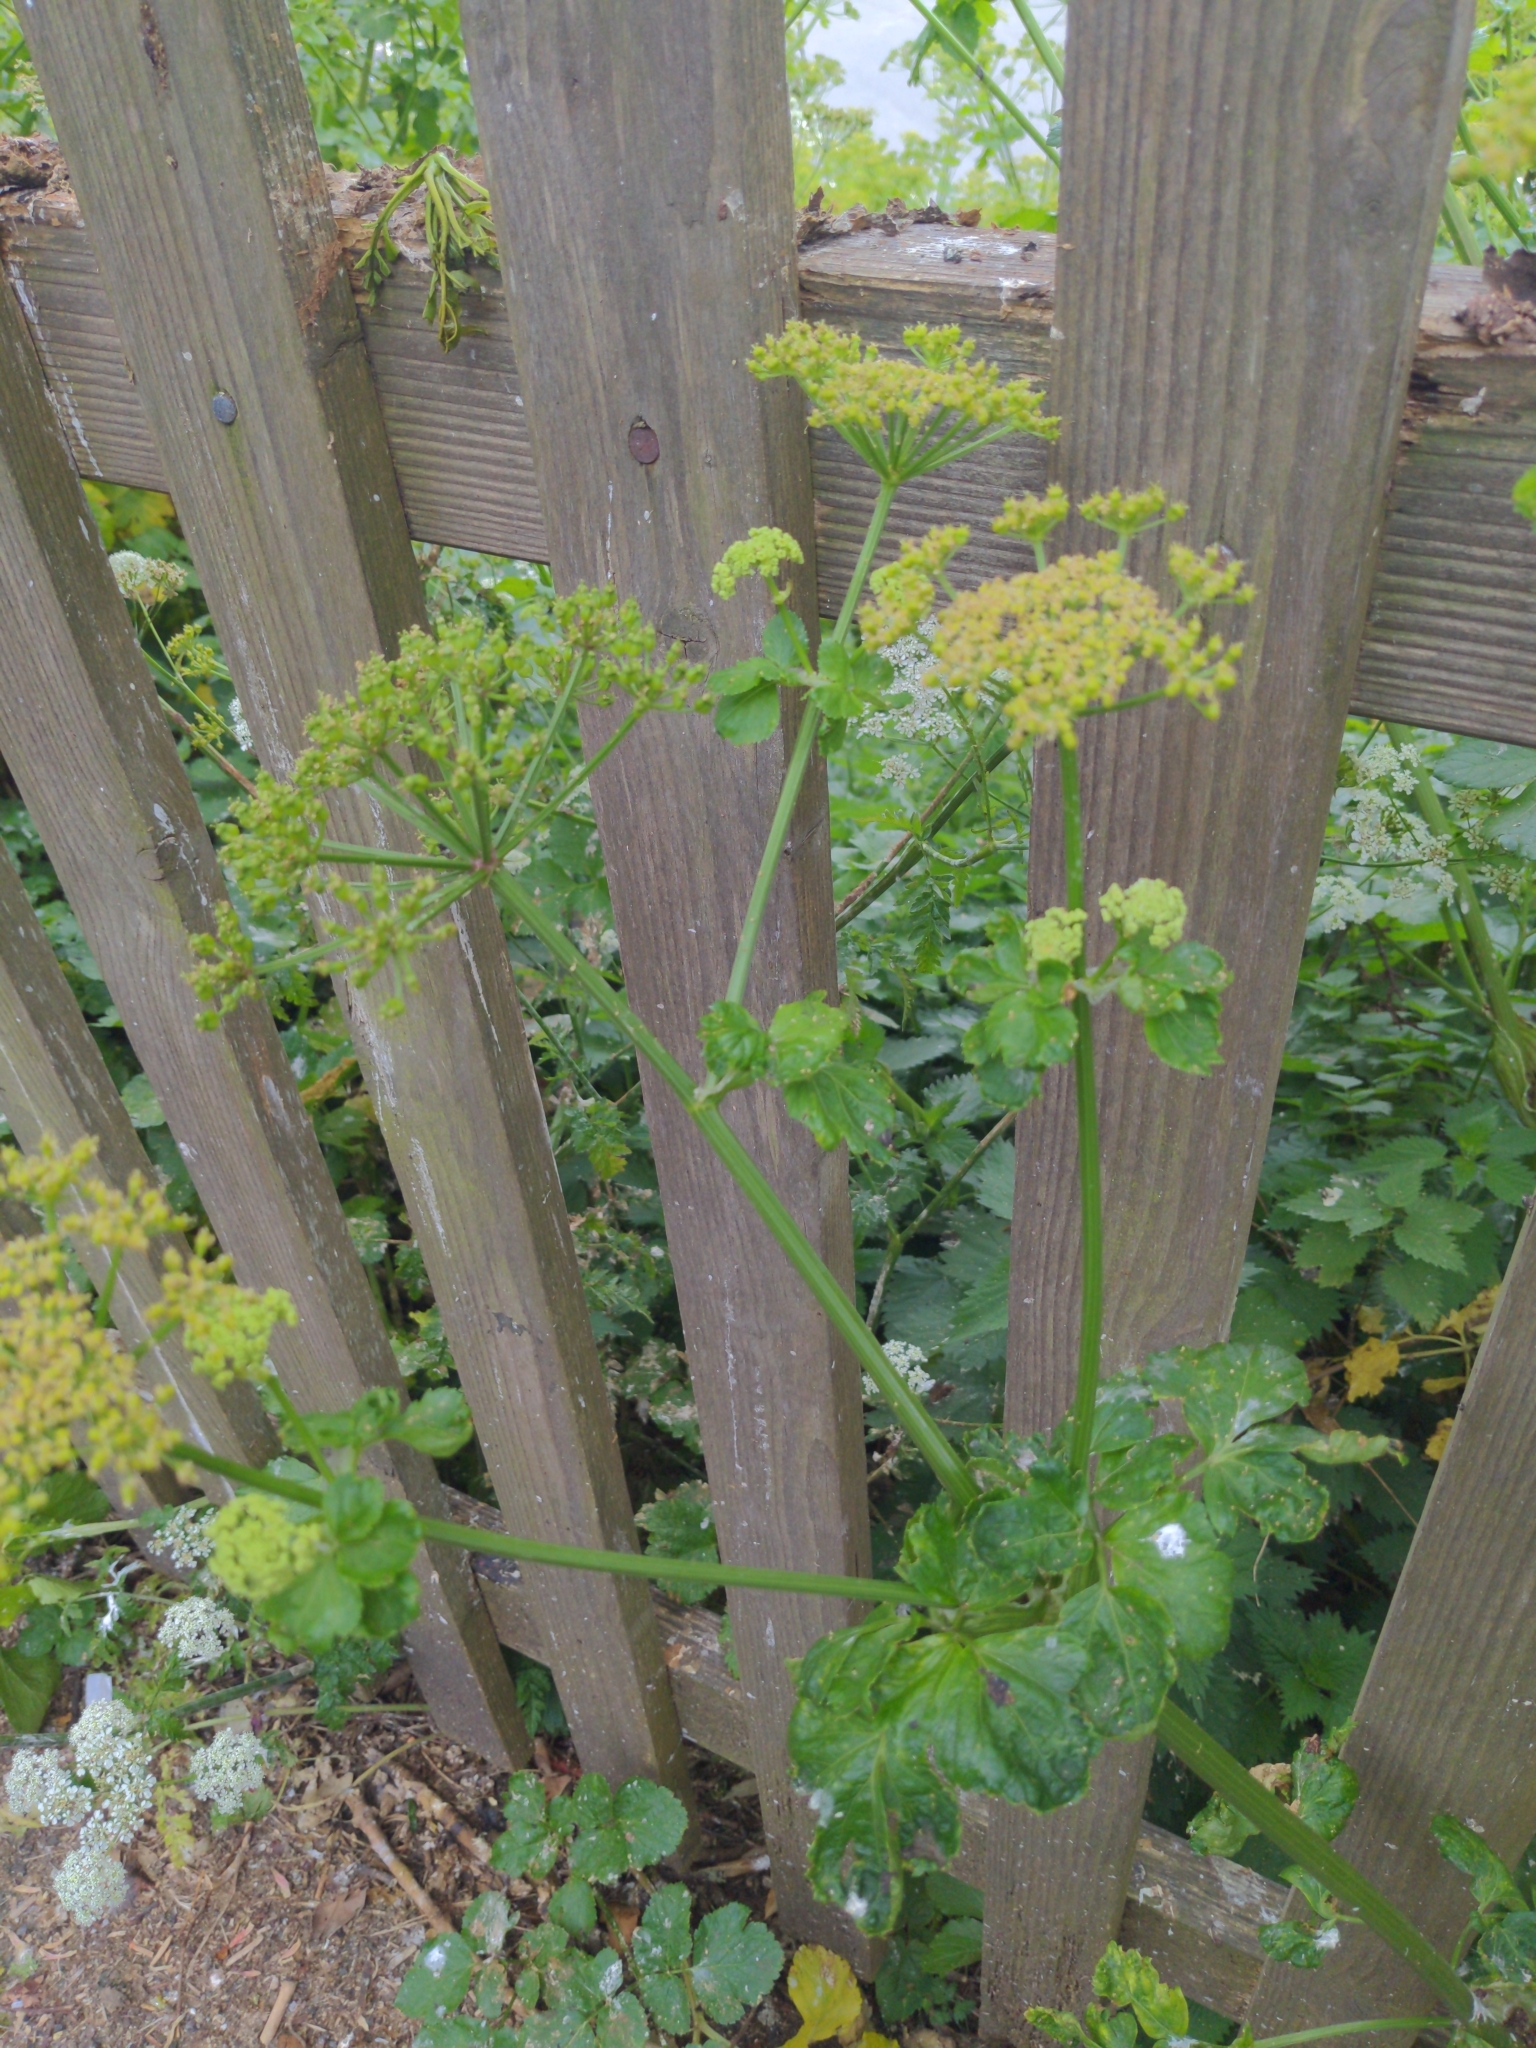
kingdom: Plantae
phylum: Tracheophyta
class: Magnoliopsida
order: Apiales
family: Apiaceae
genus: Smyrnium
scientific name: Smyrnium olusatrum
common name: Alexanders
